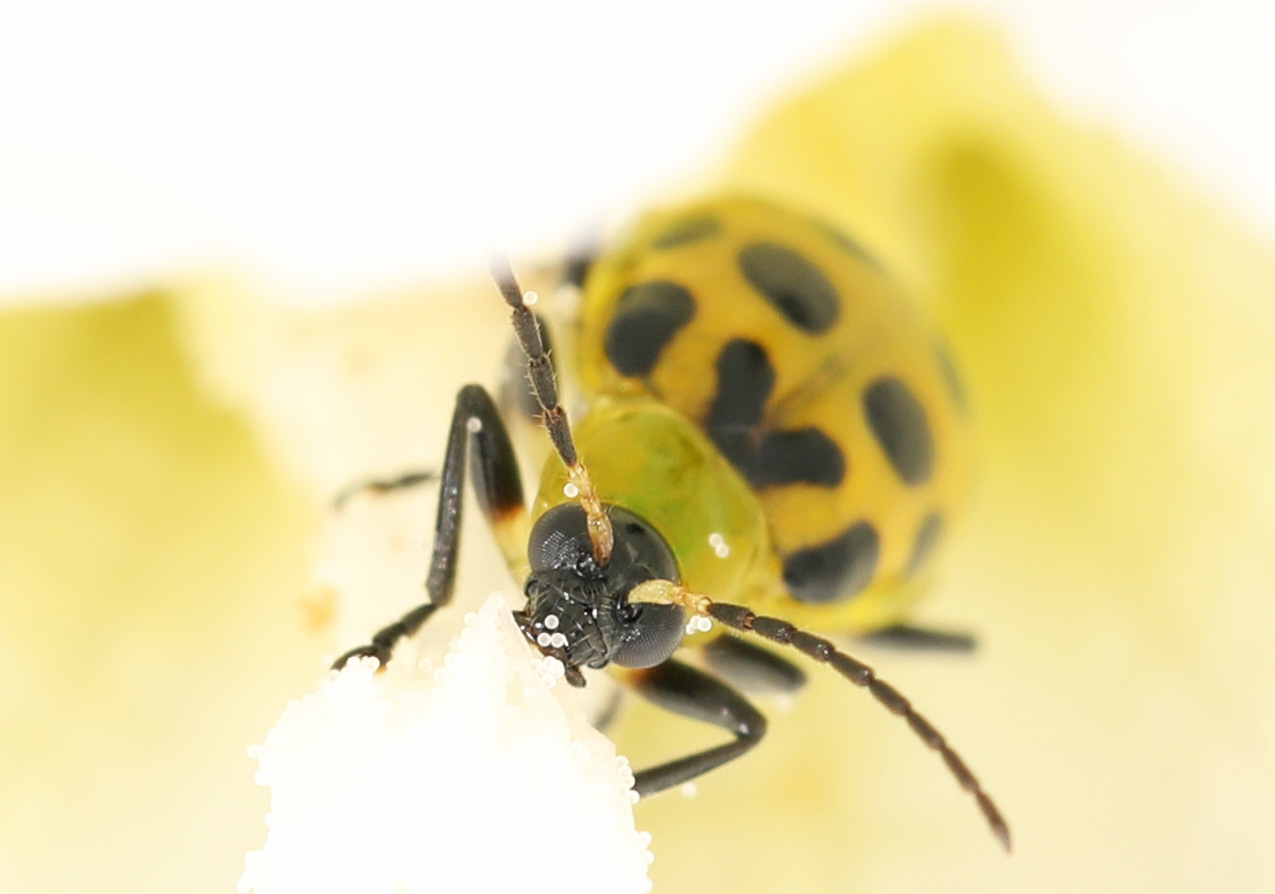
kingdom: Animalia
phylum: Arthropoda
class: Insecta
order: Coleoptera
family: Chrysomelidae
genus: Diabrotica
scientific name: Diabrotica undecimpunctata
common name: Spotted cucumber beetle
